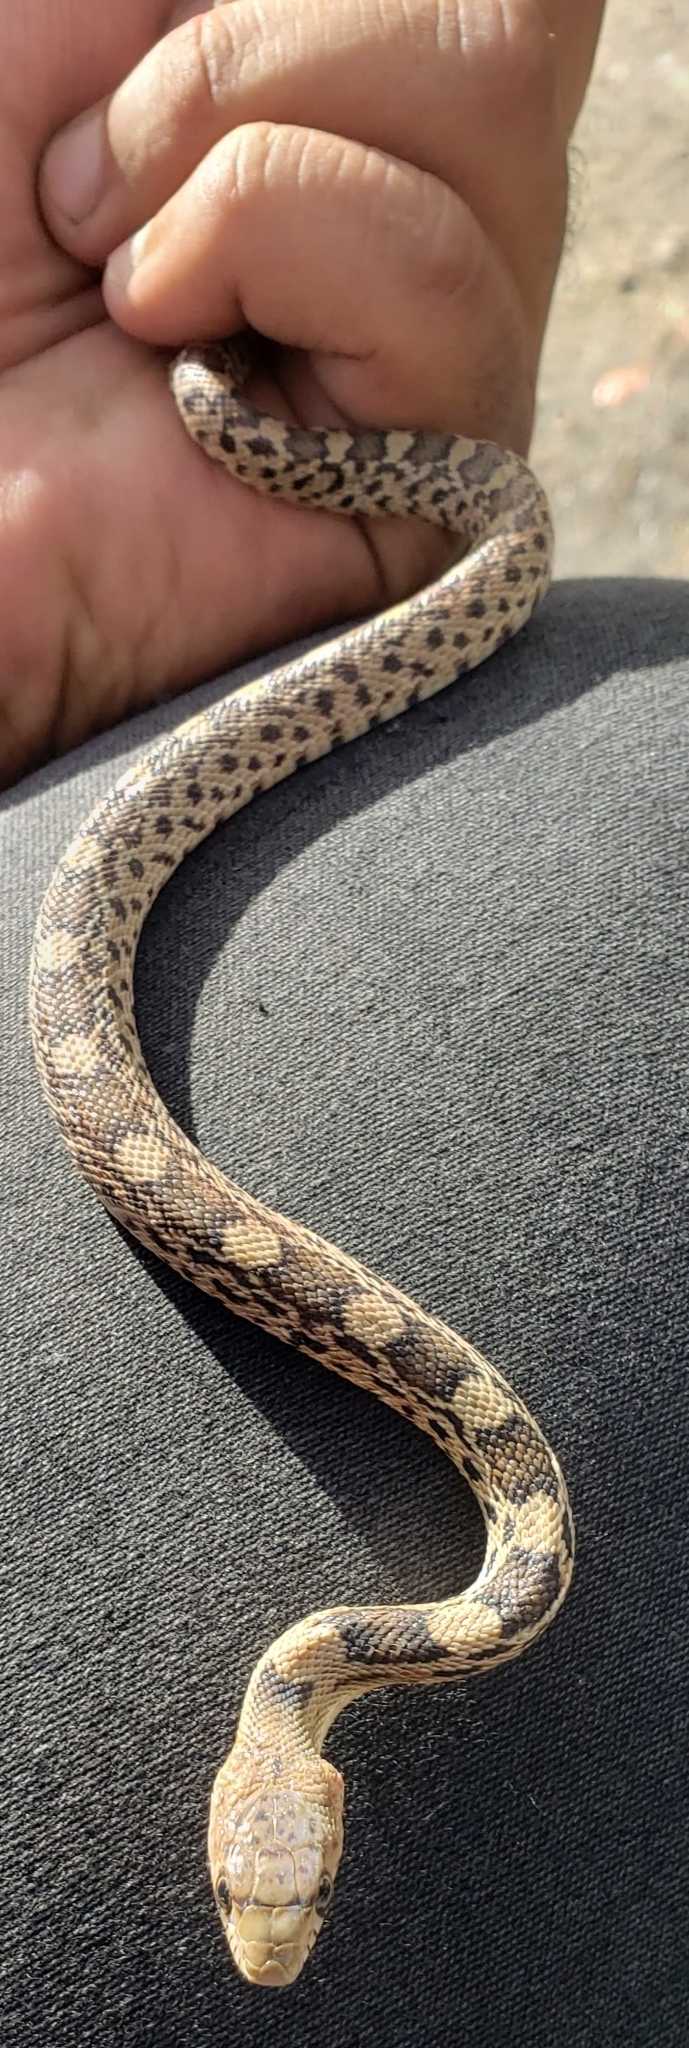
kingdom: Animalia
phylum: Chordata
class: Squamata
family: Colubridae
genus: Pituophis
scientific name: Pituophis deppei
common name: Mexican bull snake
